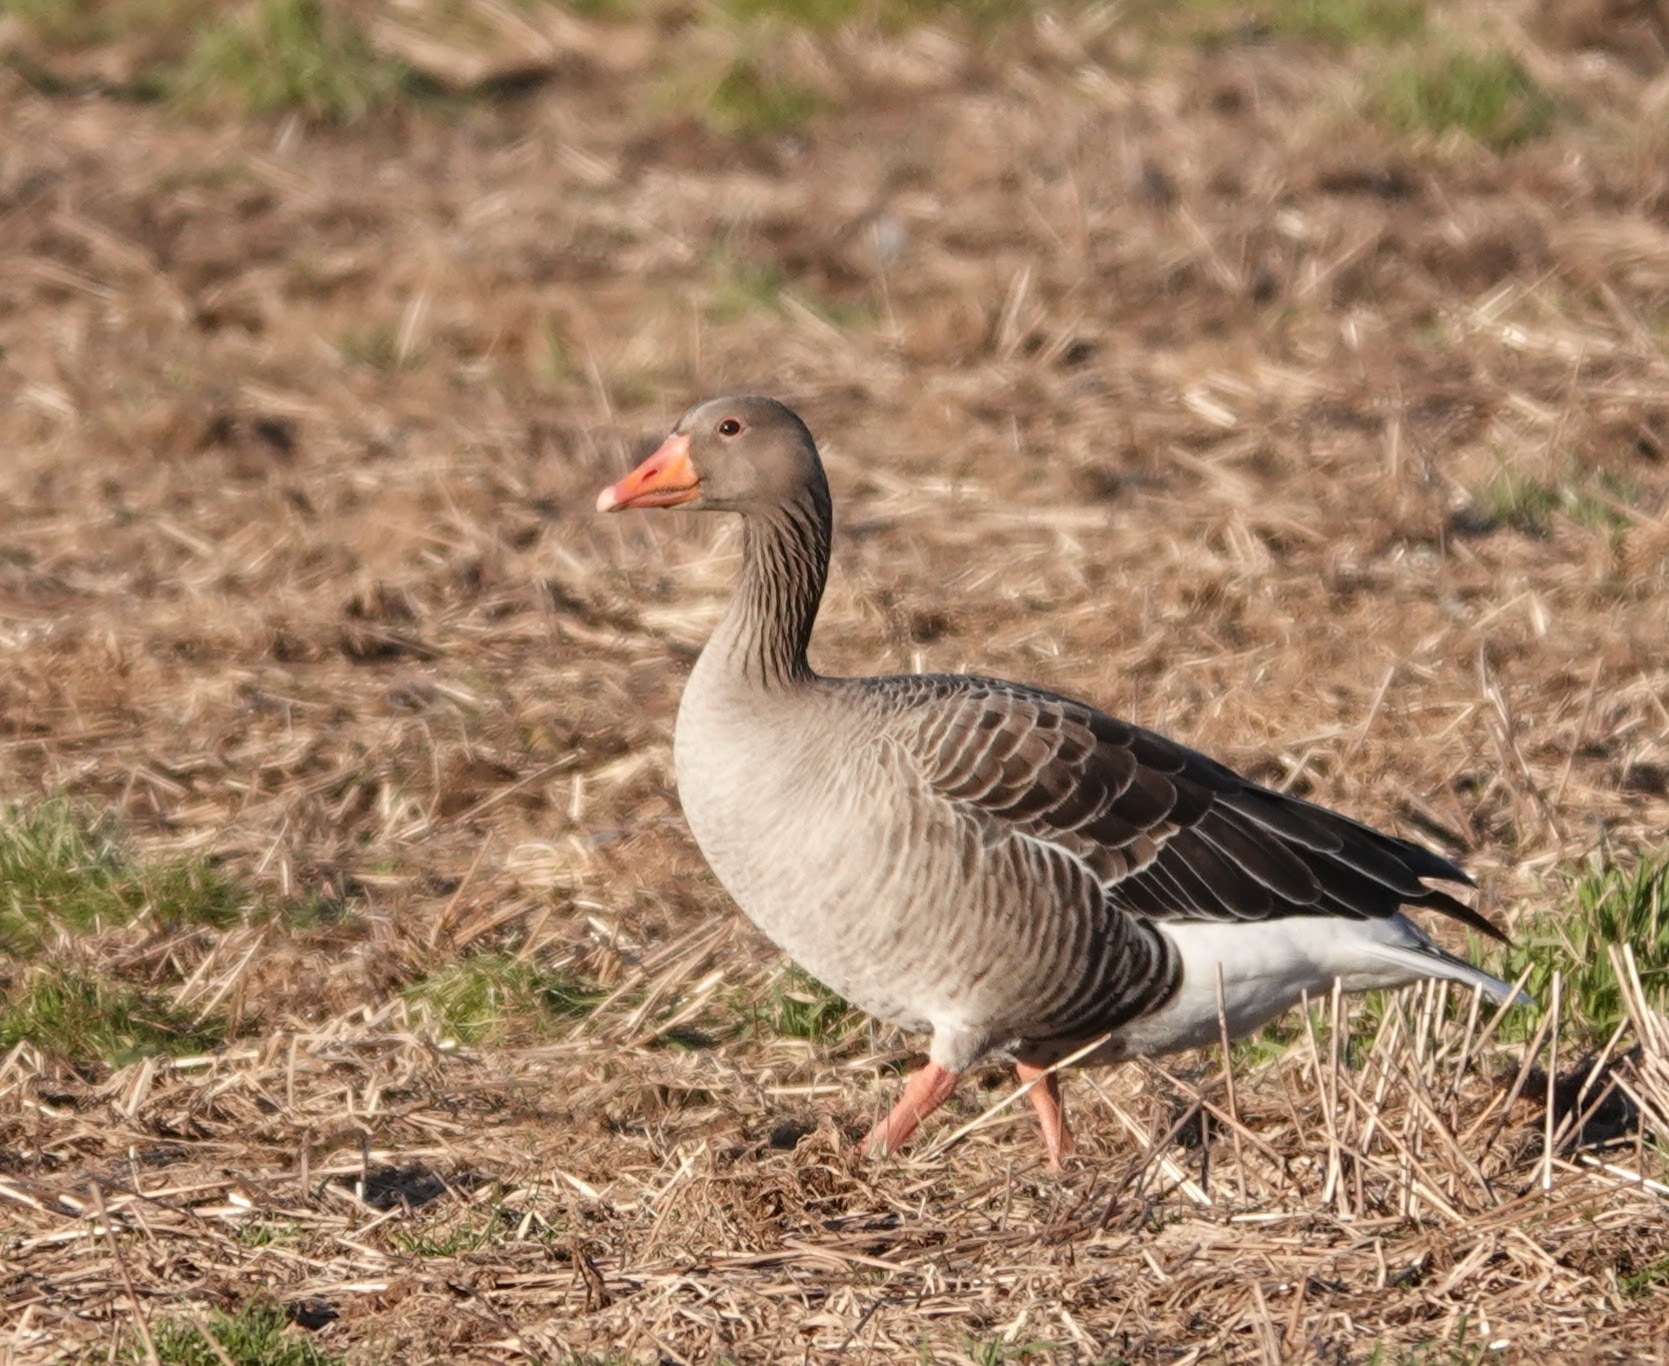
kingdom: Animalia
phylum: Chordata
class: Aves
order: Anseriformes
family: Anatidae
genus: Anser
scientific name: Anser anser
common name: Greylag goose
